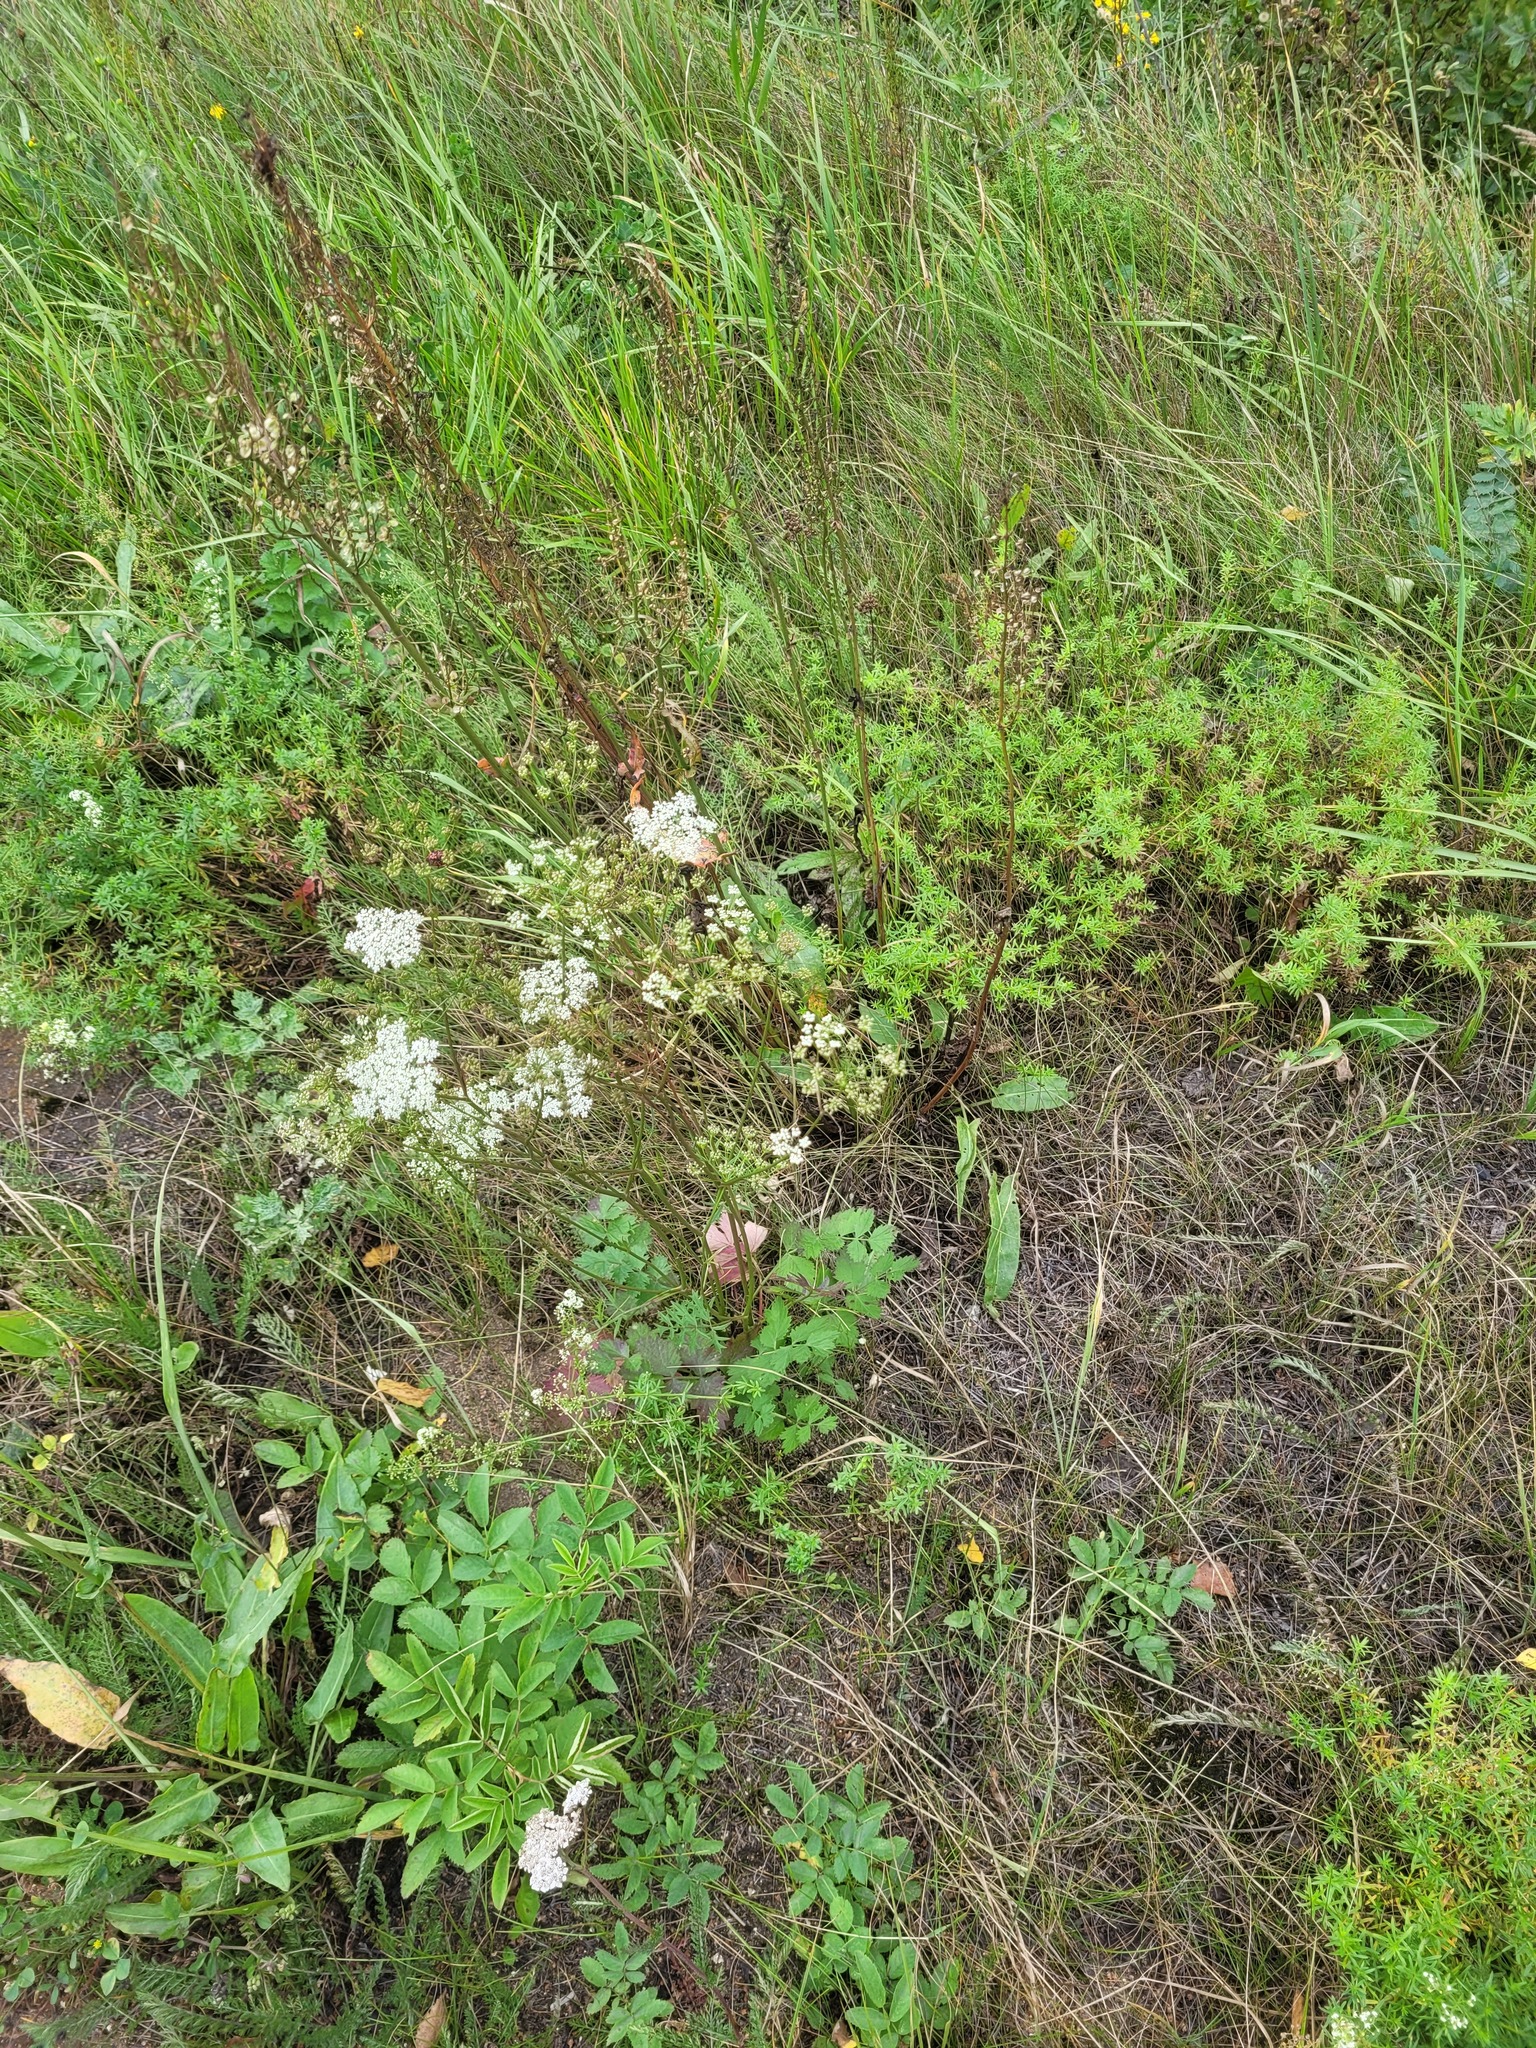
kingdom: Plantae
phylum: Tracheophyta
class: Magnoliopsida
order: Apiales
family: Apiaceae
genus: Pimpinella
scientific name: Pimpinella saxifraga
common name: Burnet-saxifrage
